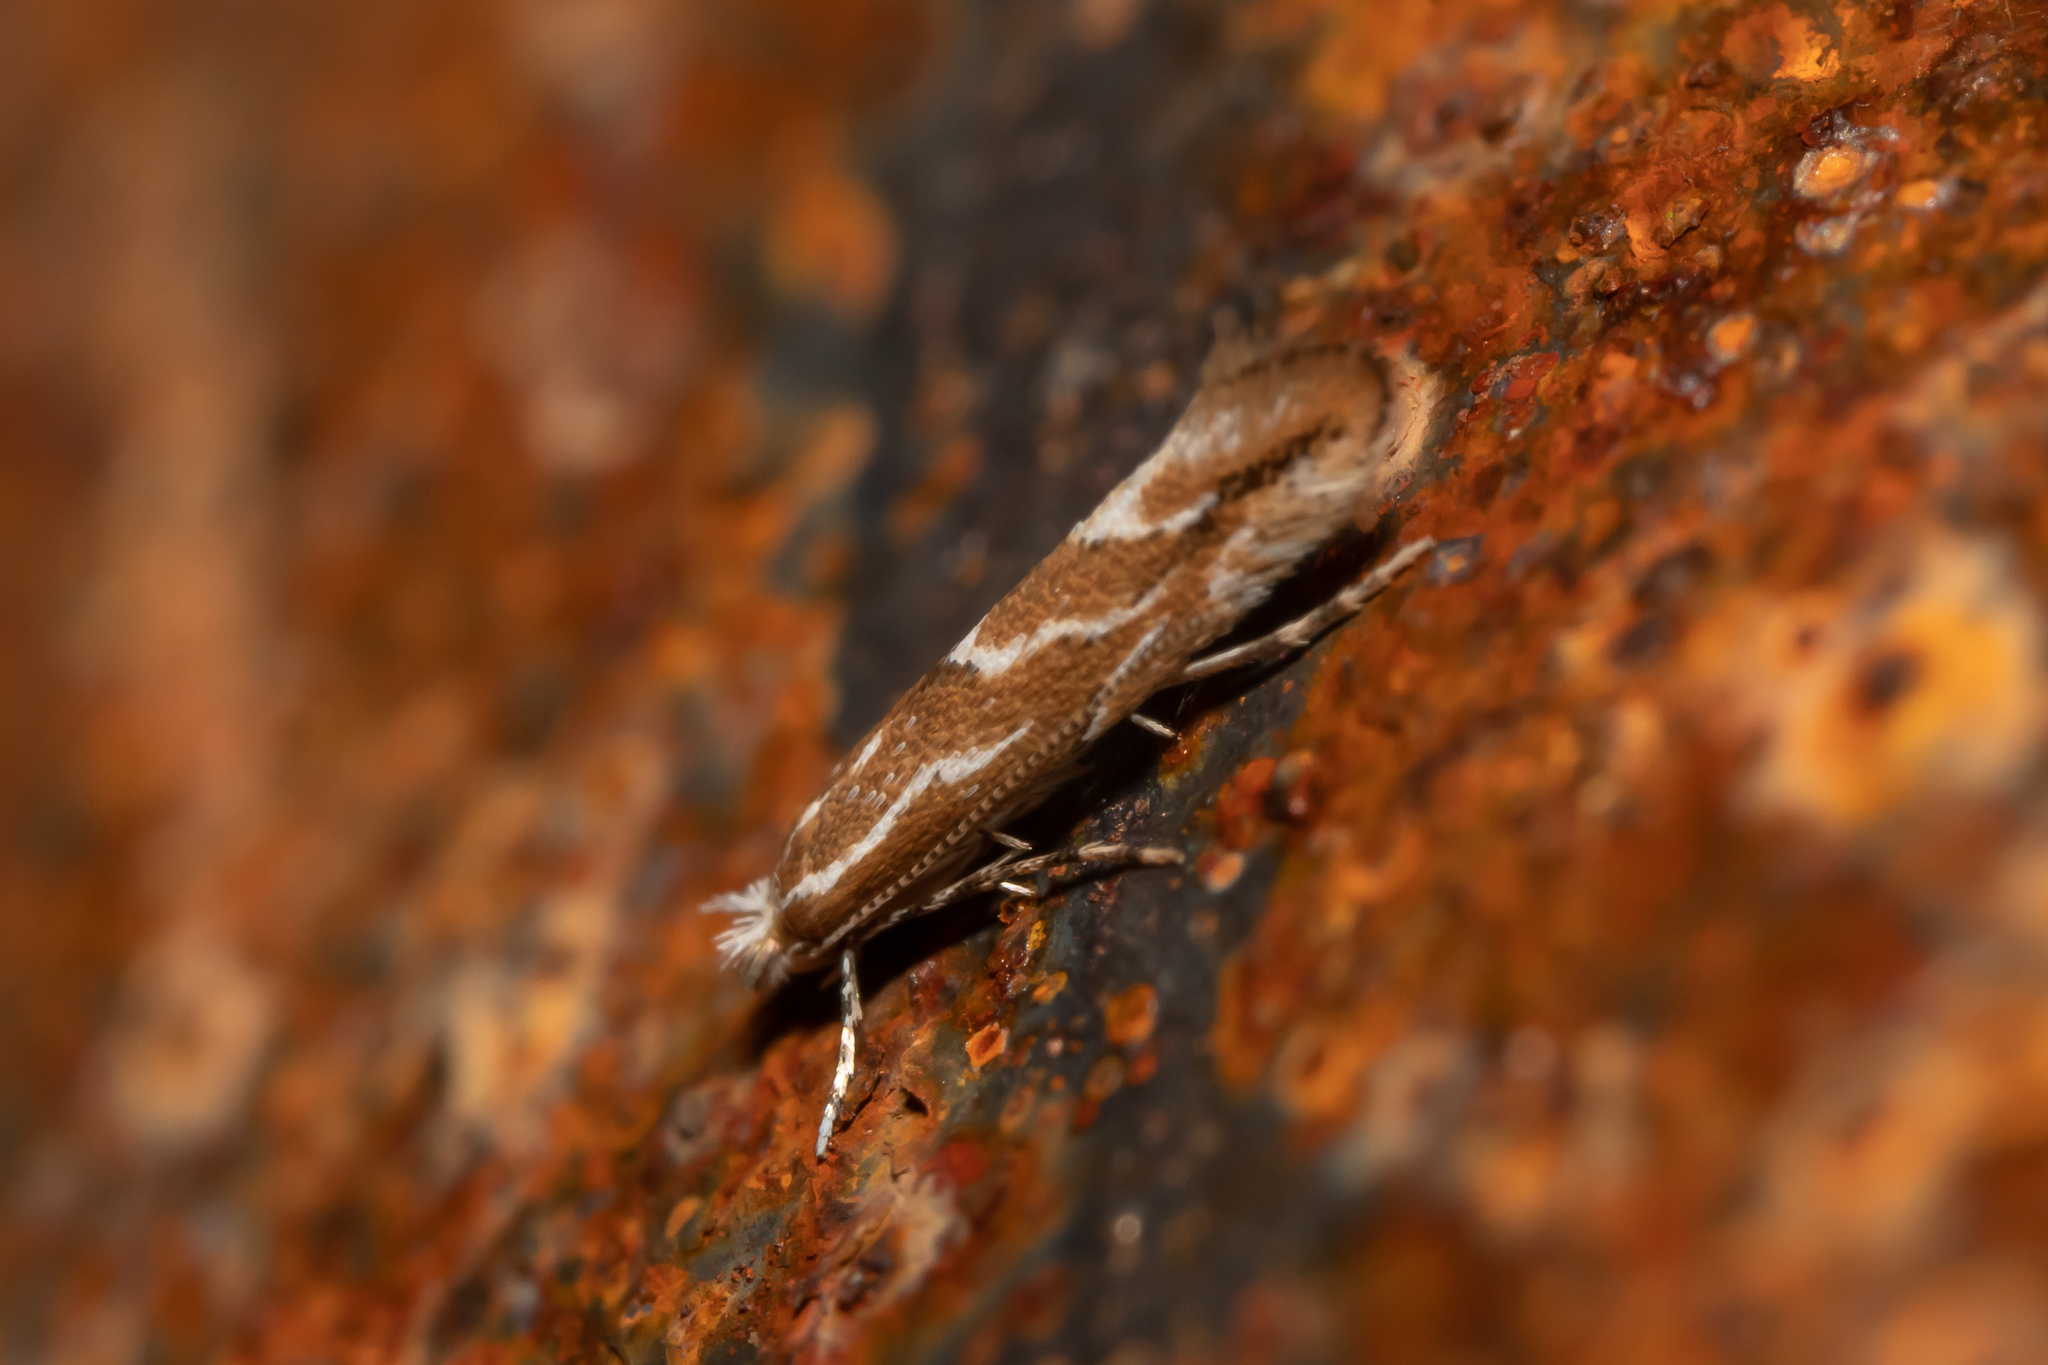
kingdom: Animalia
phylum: Arthropoda
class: Insecta
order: Lepidoptera
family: Gracillariidae
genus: Phyllonorycter
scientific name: Phyllonorycter issikii
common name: Linden midget
